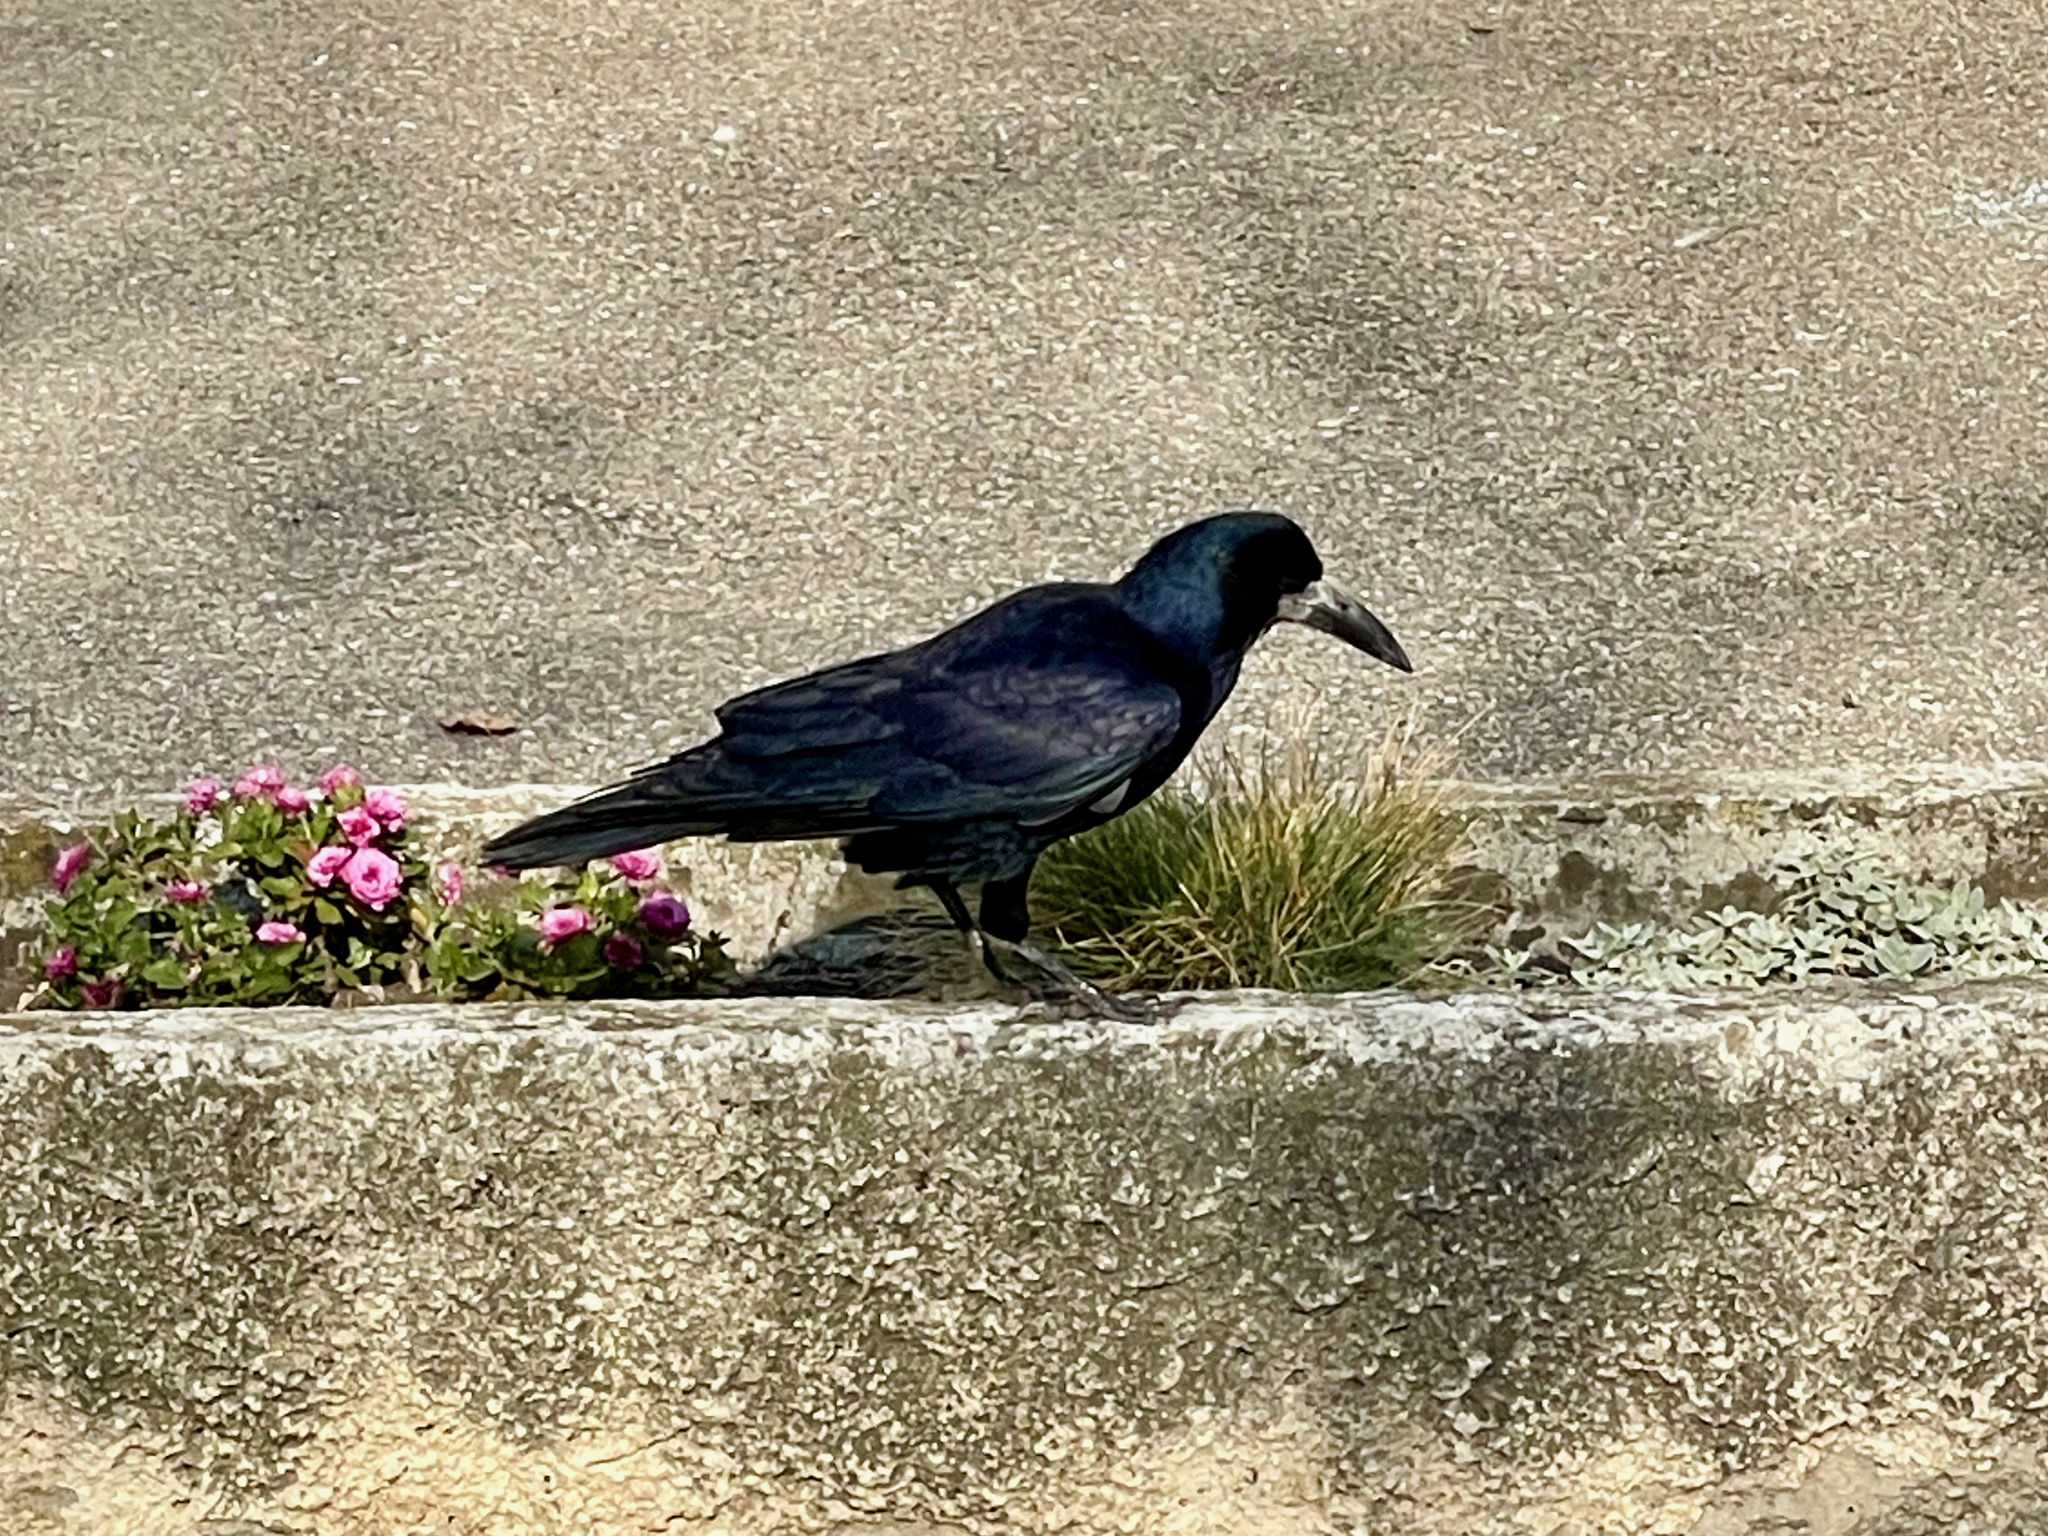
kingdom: Animalia
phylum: Chordata
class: Aves
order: Passeriformes
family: Corvidae
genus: Corvus
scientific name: Corvus frugilegus
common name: Rook
